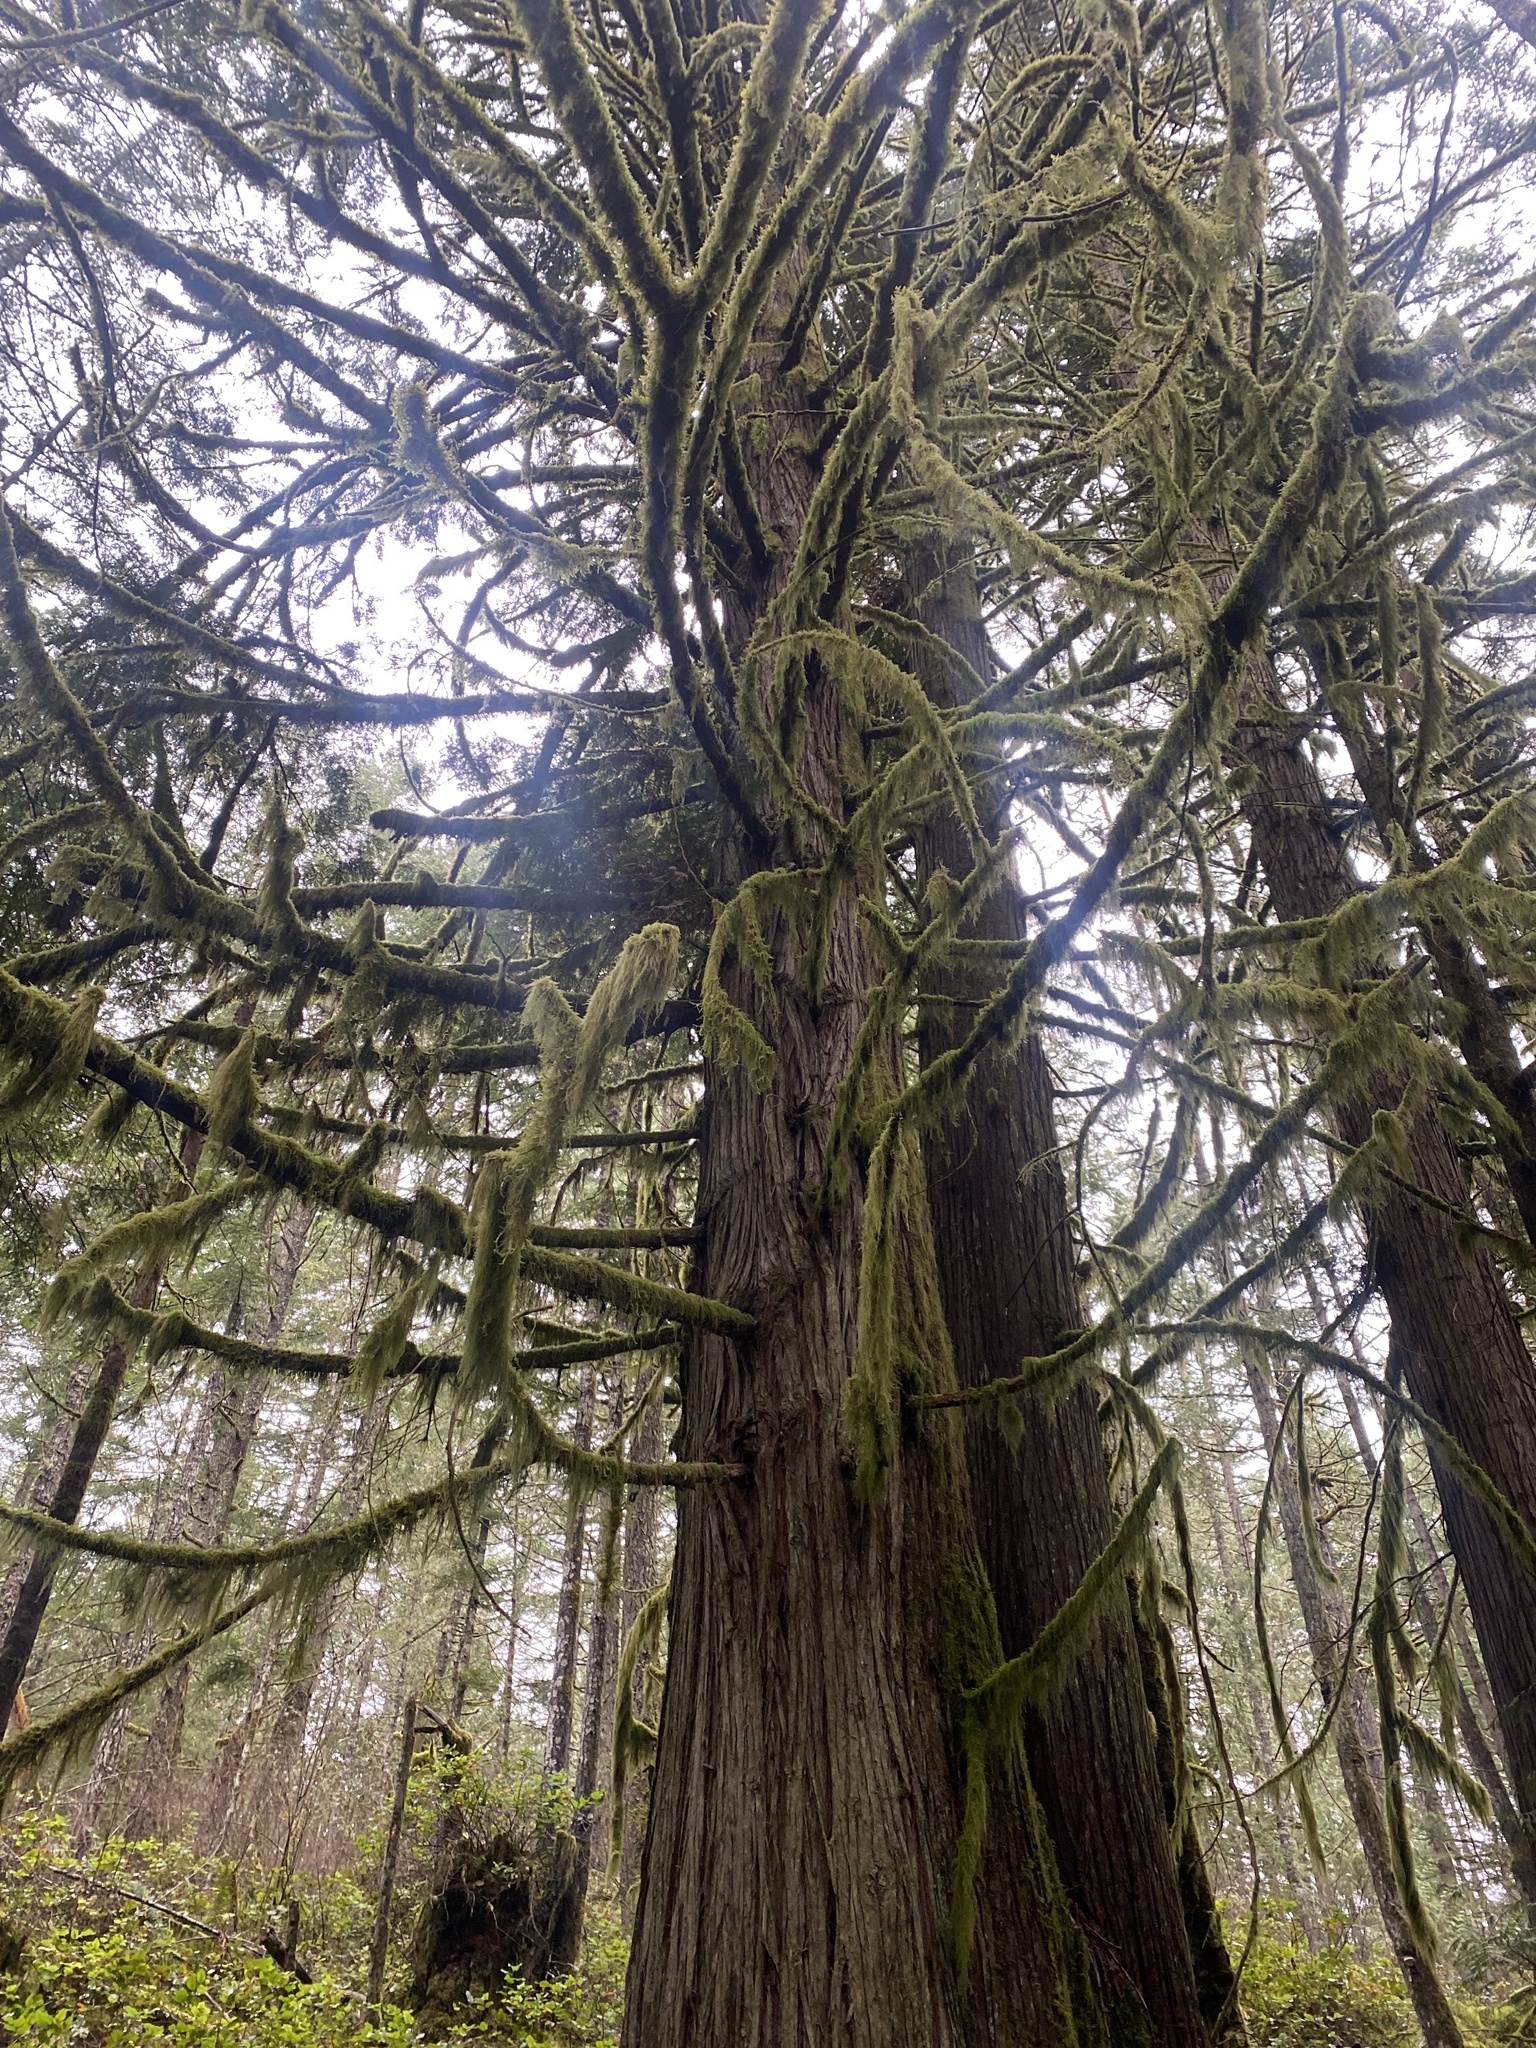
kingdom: Plantae
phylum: Tracheophyta
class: Pinopsida
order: Pinales
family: Cupressaceae
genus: Thuja
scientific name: Thuja plicata
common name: Western red-cedar
